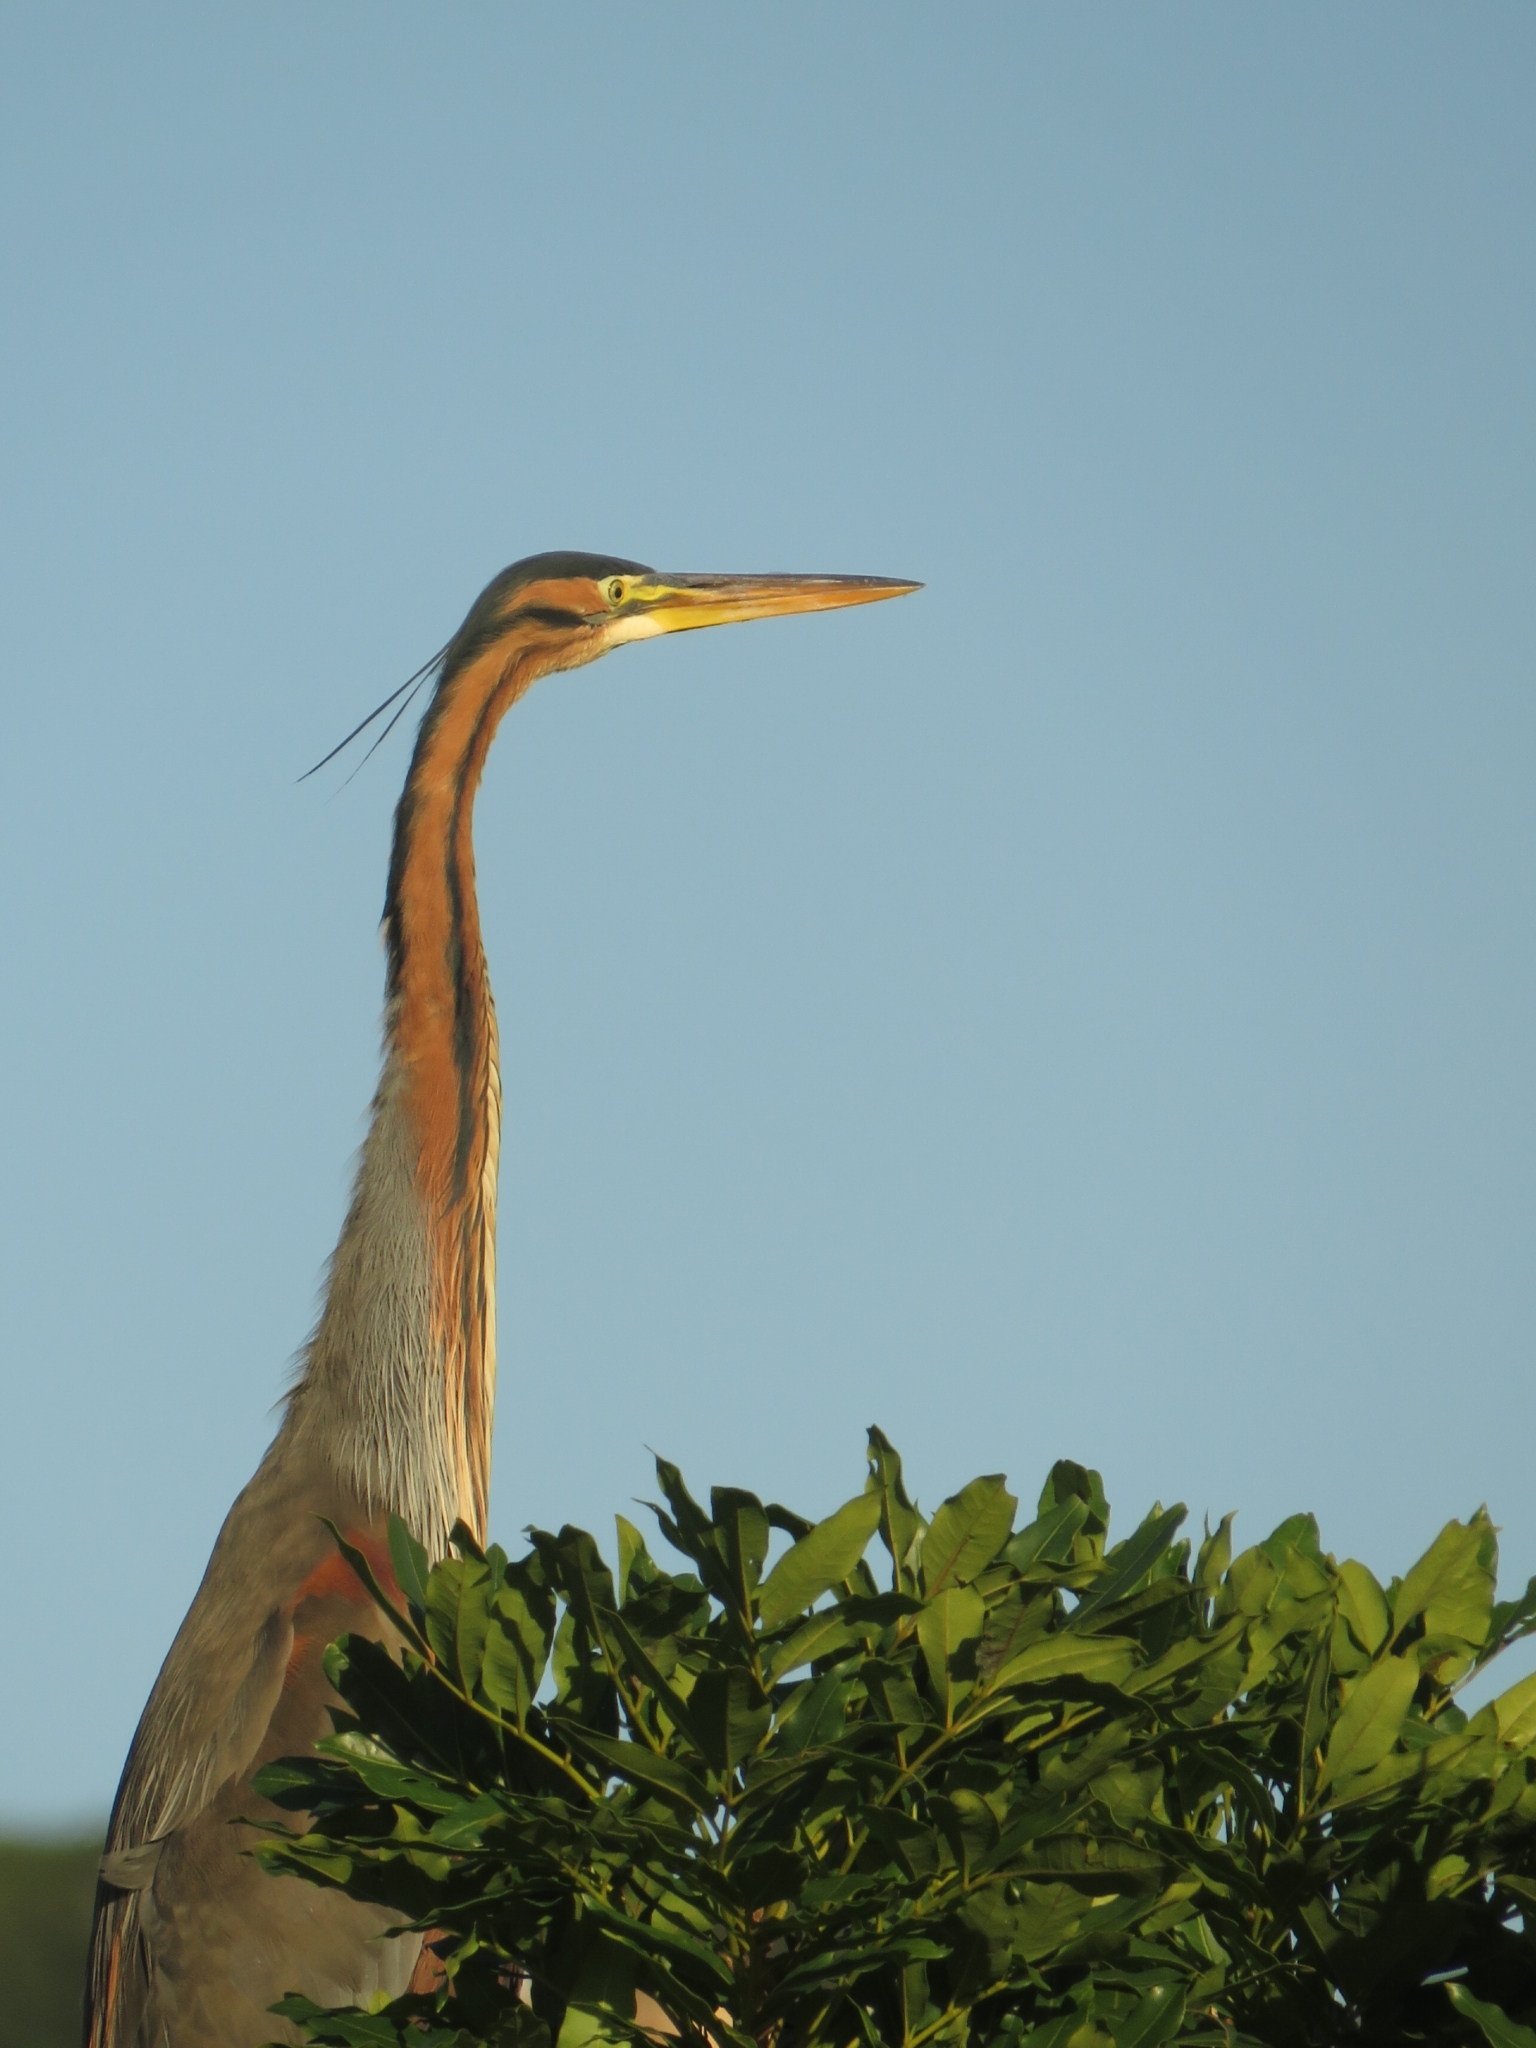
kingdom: Animalia
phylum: Chordata
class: Aves
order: Pelecaniformes
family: Ardeidae
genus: Ardea
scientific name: Ardea purpurea
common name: Purple heron
